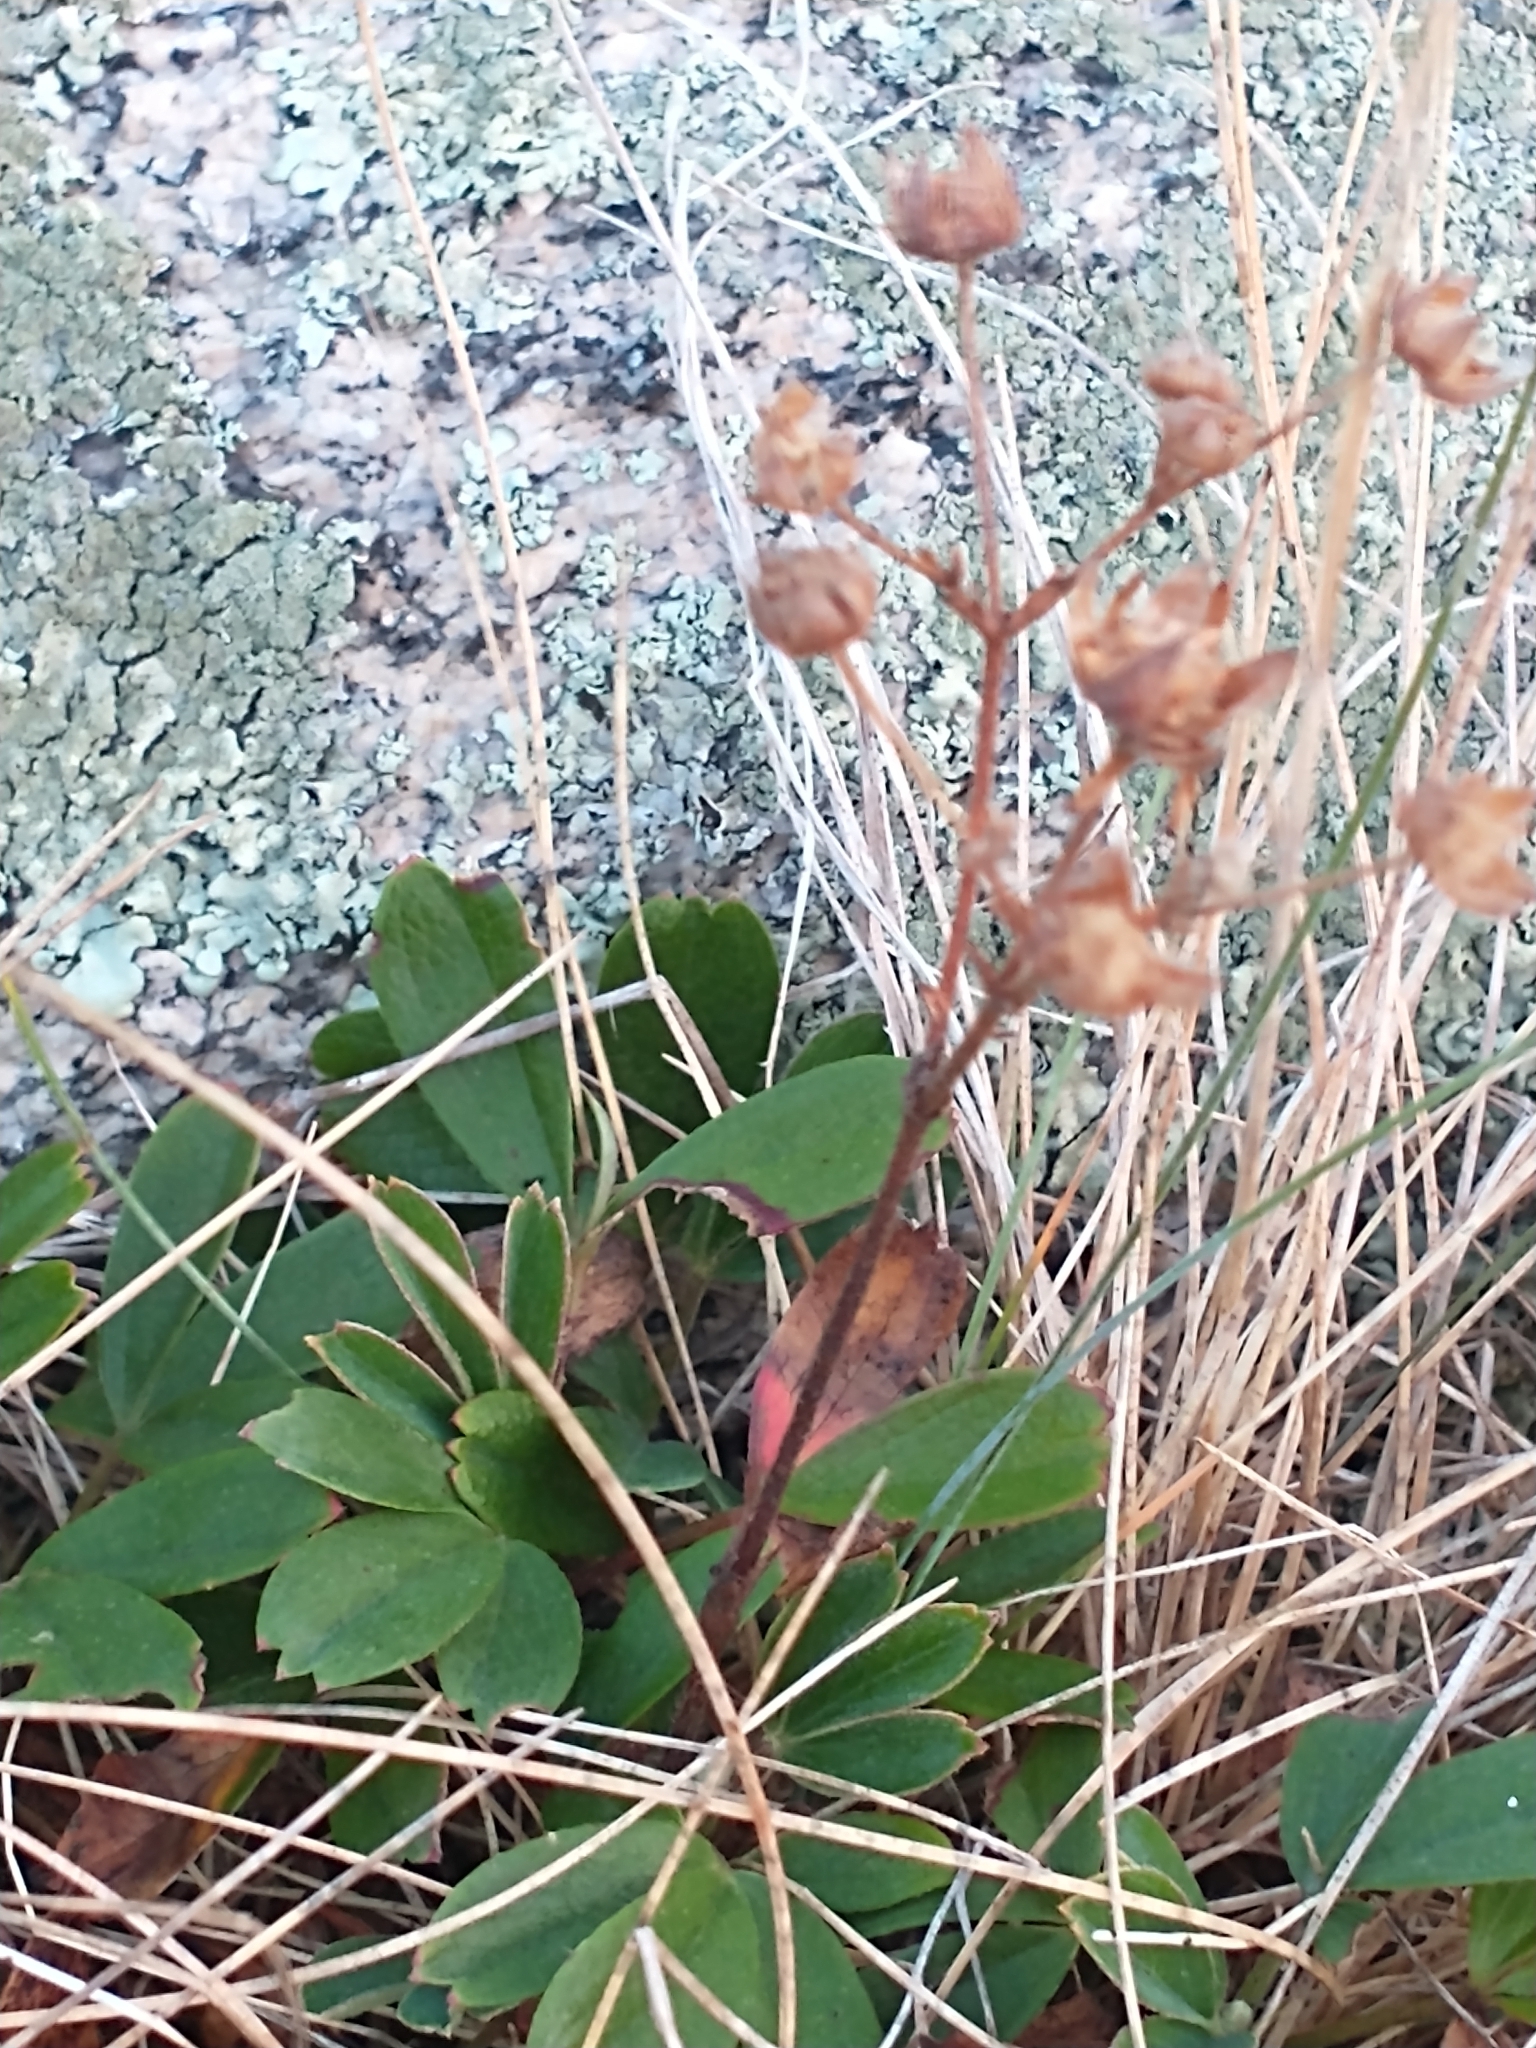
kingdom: Plantae
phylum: Tracheophyta
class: Magnoliopsida
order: Rosales
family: Rosaceae
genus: Sibbaldia
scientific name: Sibbaldia tridentata
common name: Three-toothed cinquefoil
